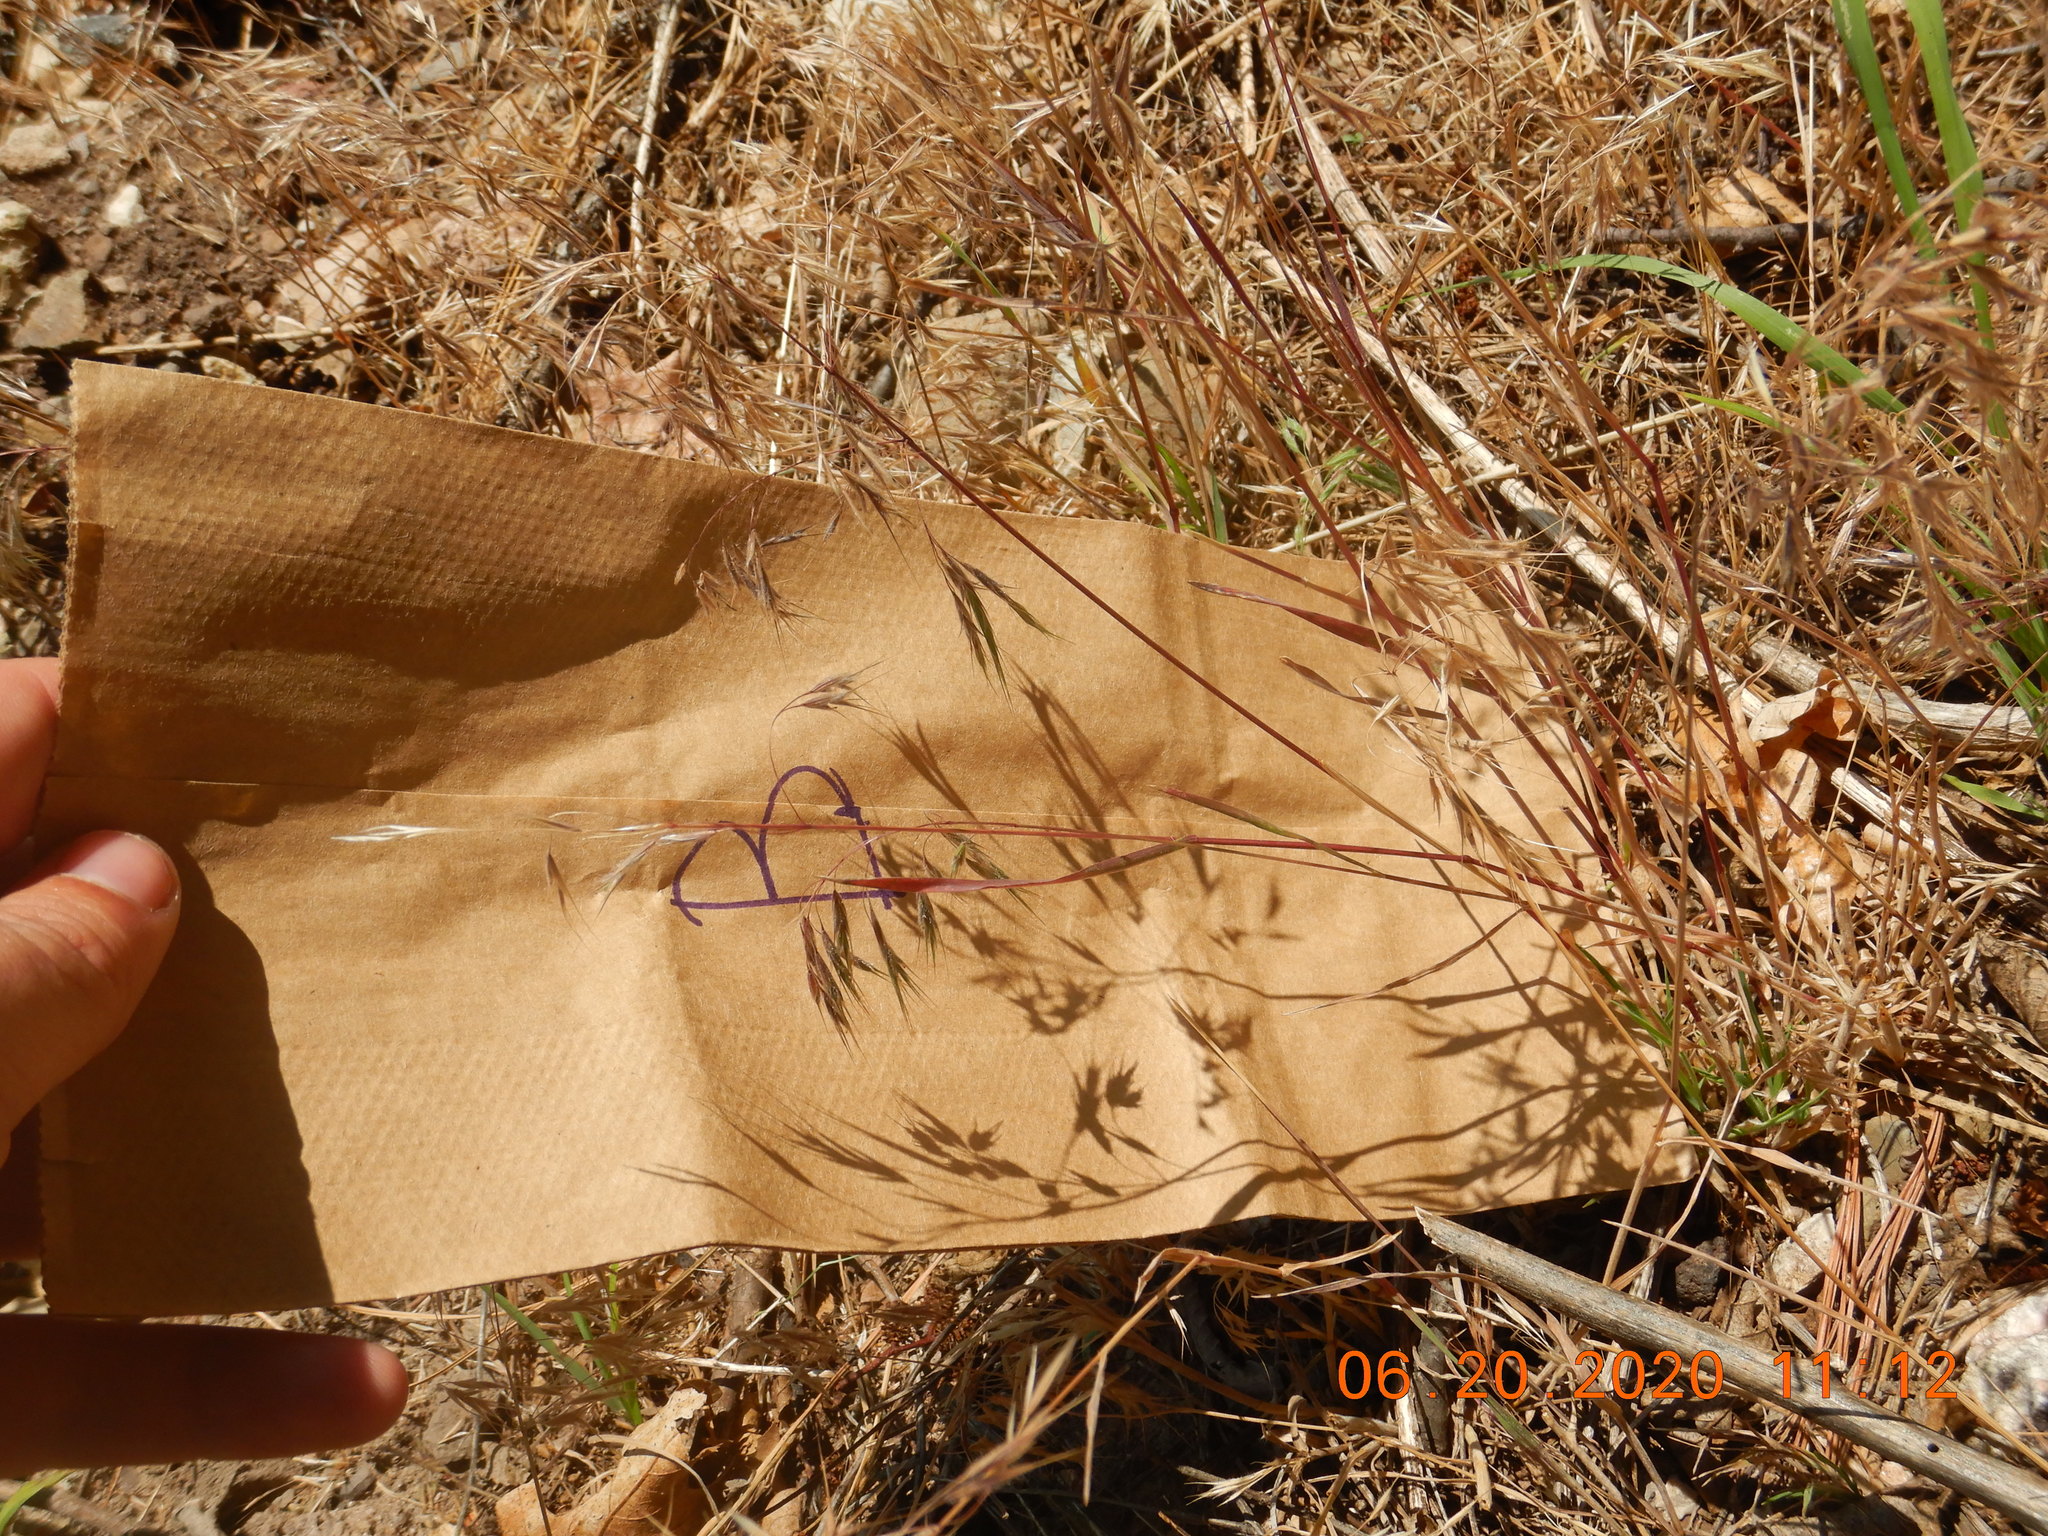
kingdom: Plantae
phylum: Tracheophyta
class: Liliopsida
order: Poales
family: Poaceae
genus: Bromus
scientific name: Bromus tectorum
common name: Cheatgrass
